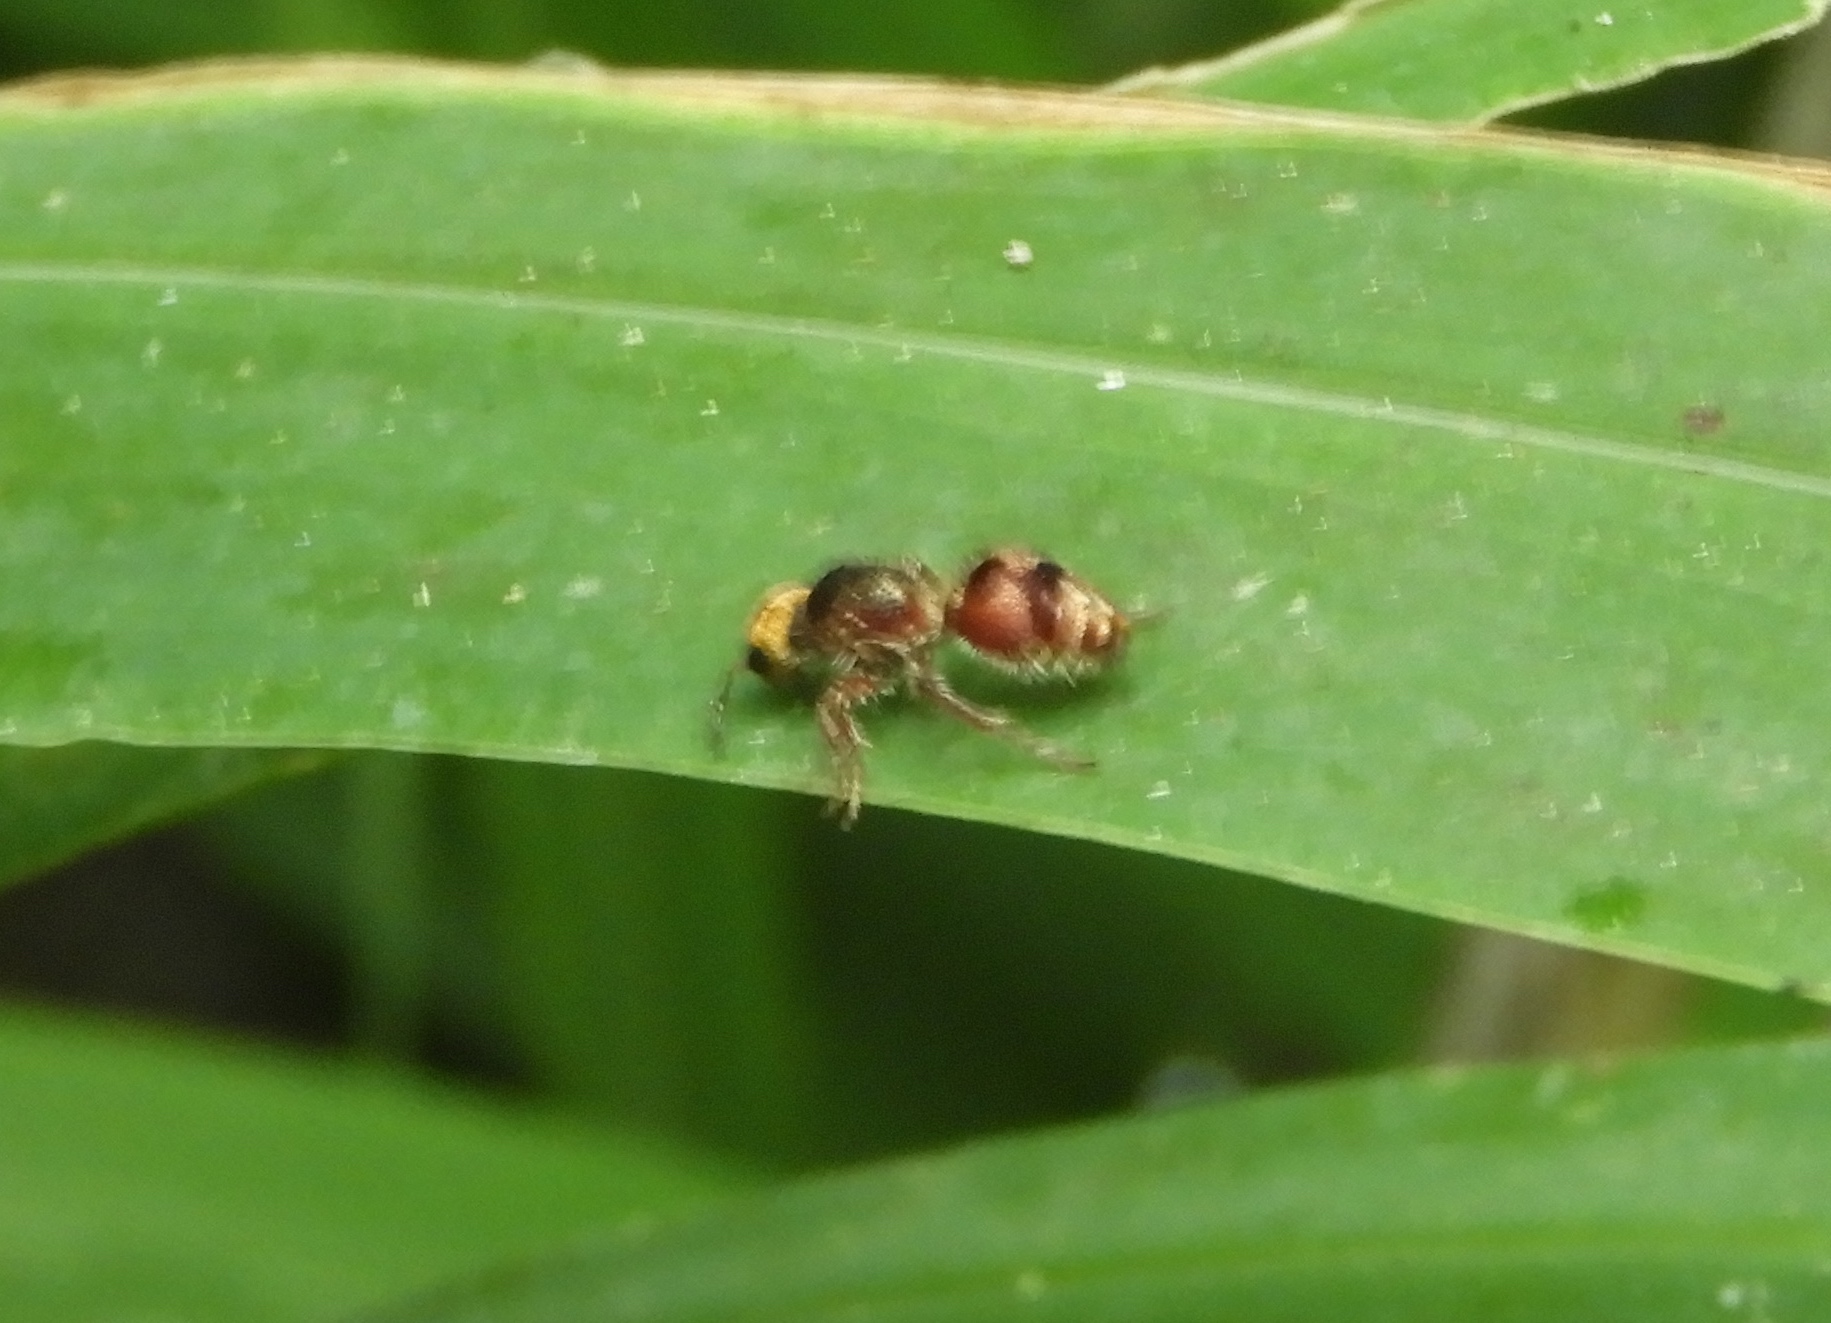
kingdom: Animalia
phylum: Arthropoda
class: Insecta
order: Hymenoptera
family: Mutillidae
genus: Dasymutilla
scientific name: Dasymutilla
